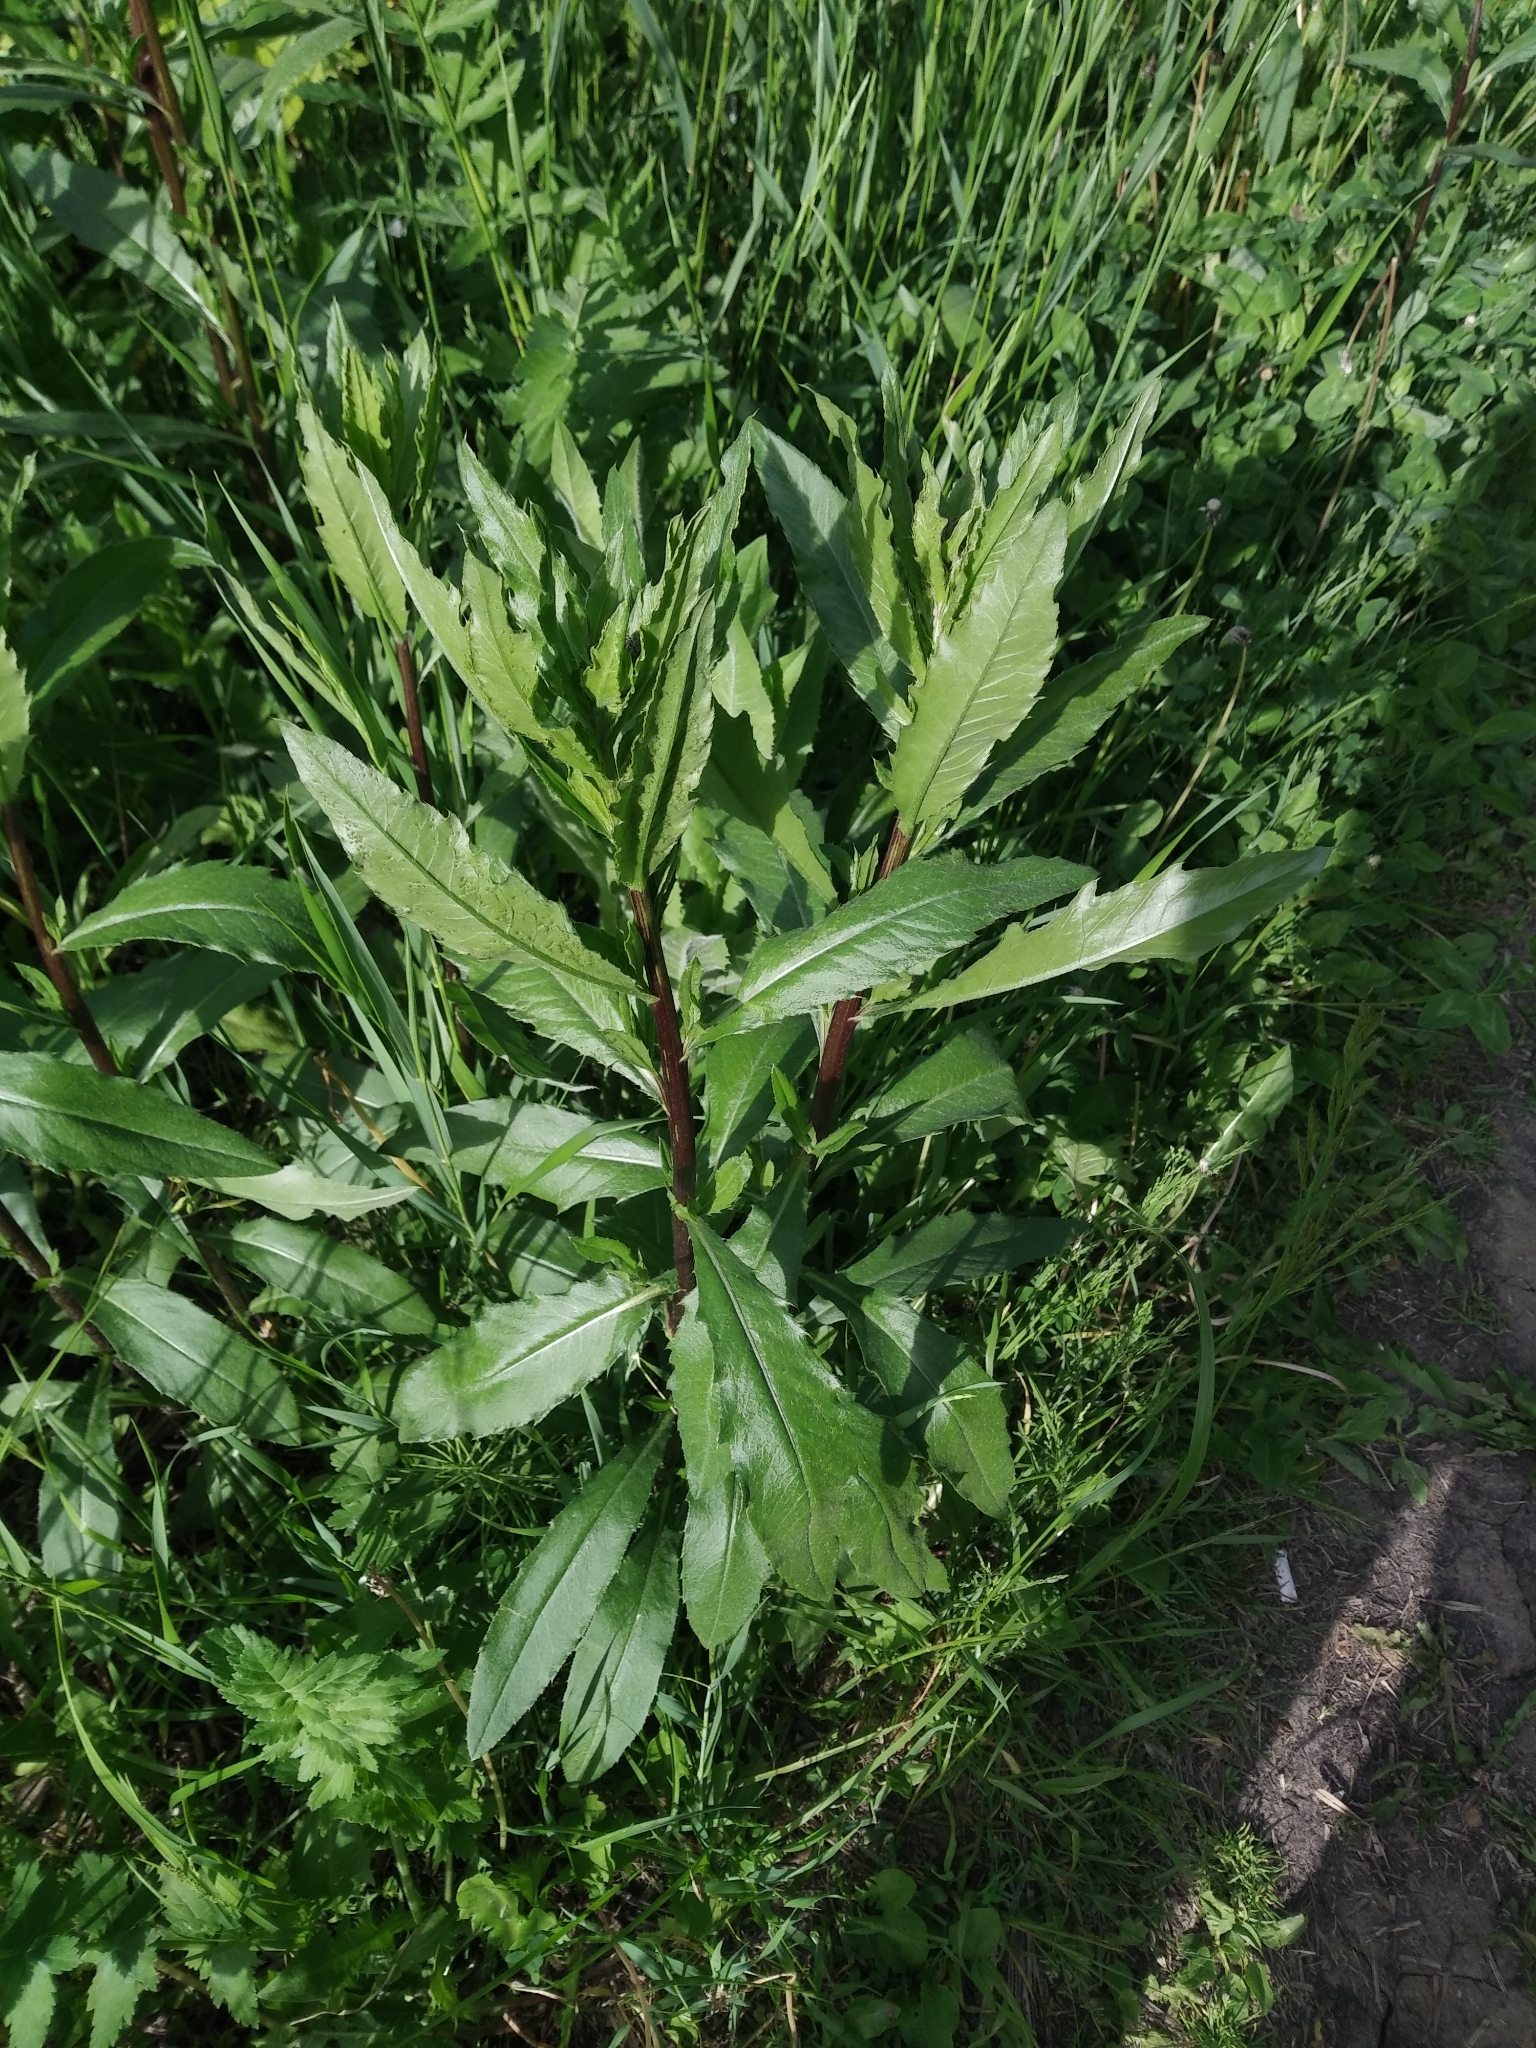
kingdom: Plantae
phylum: Tracheophyta
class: Magnoliopsida
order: Asterales
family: Asteraceae
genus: Cirsium
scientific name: Cirsium arvense
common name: Creeping thistle
